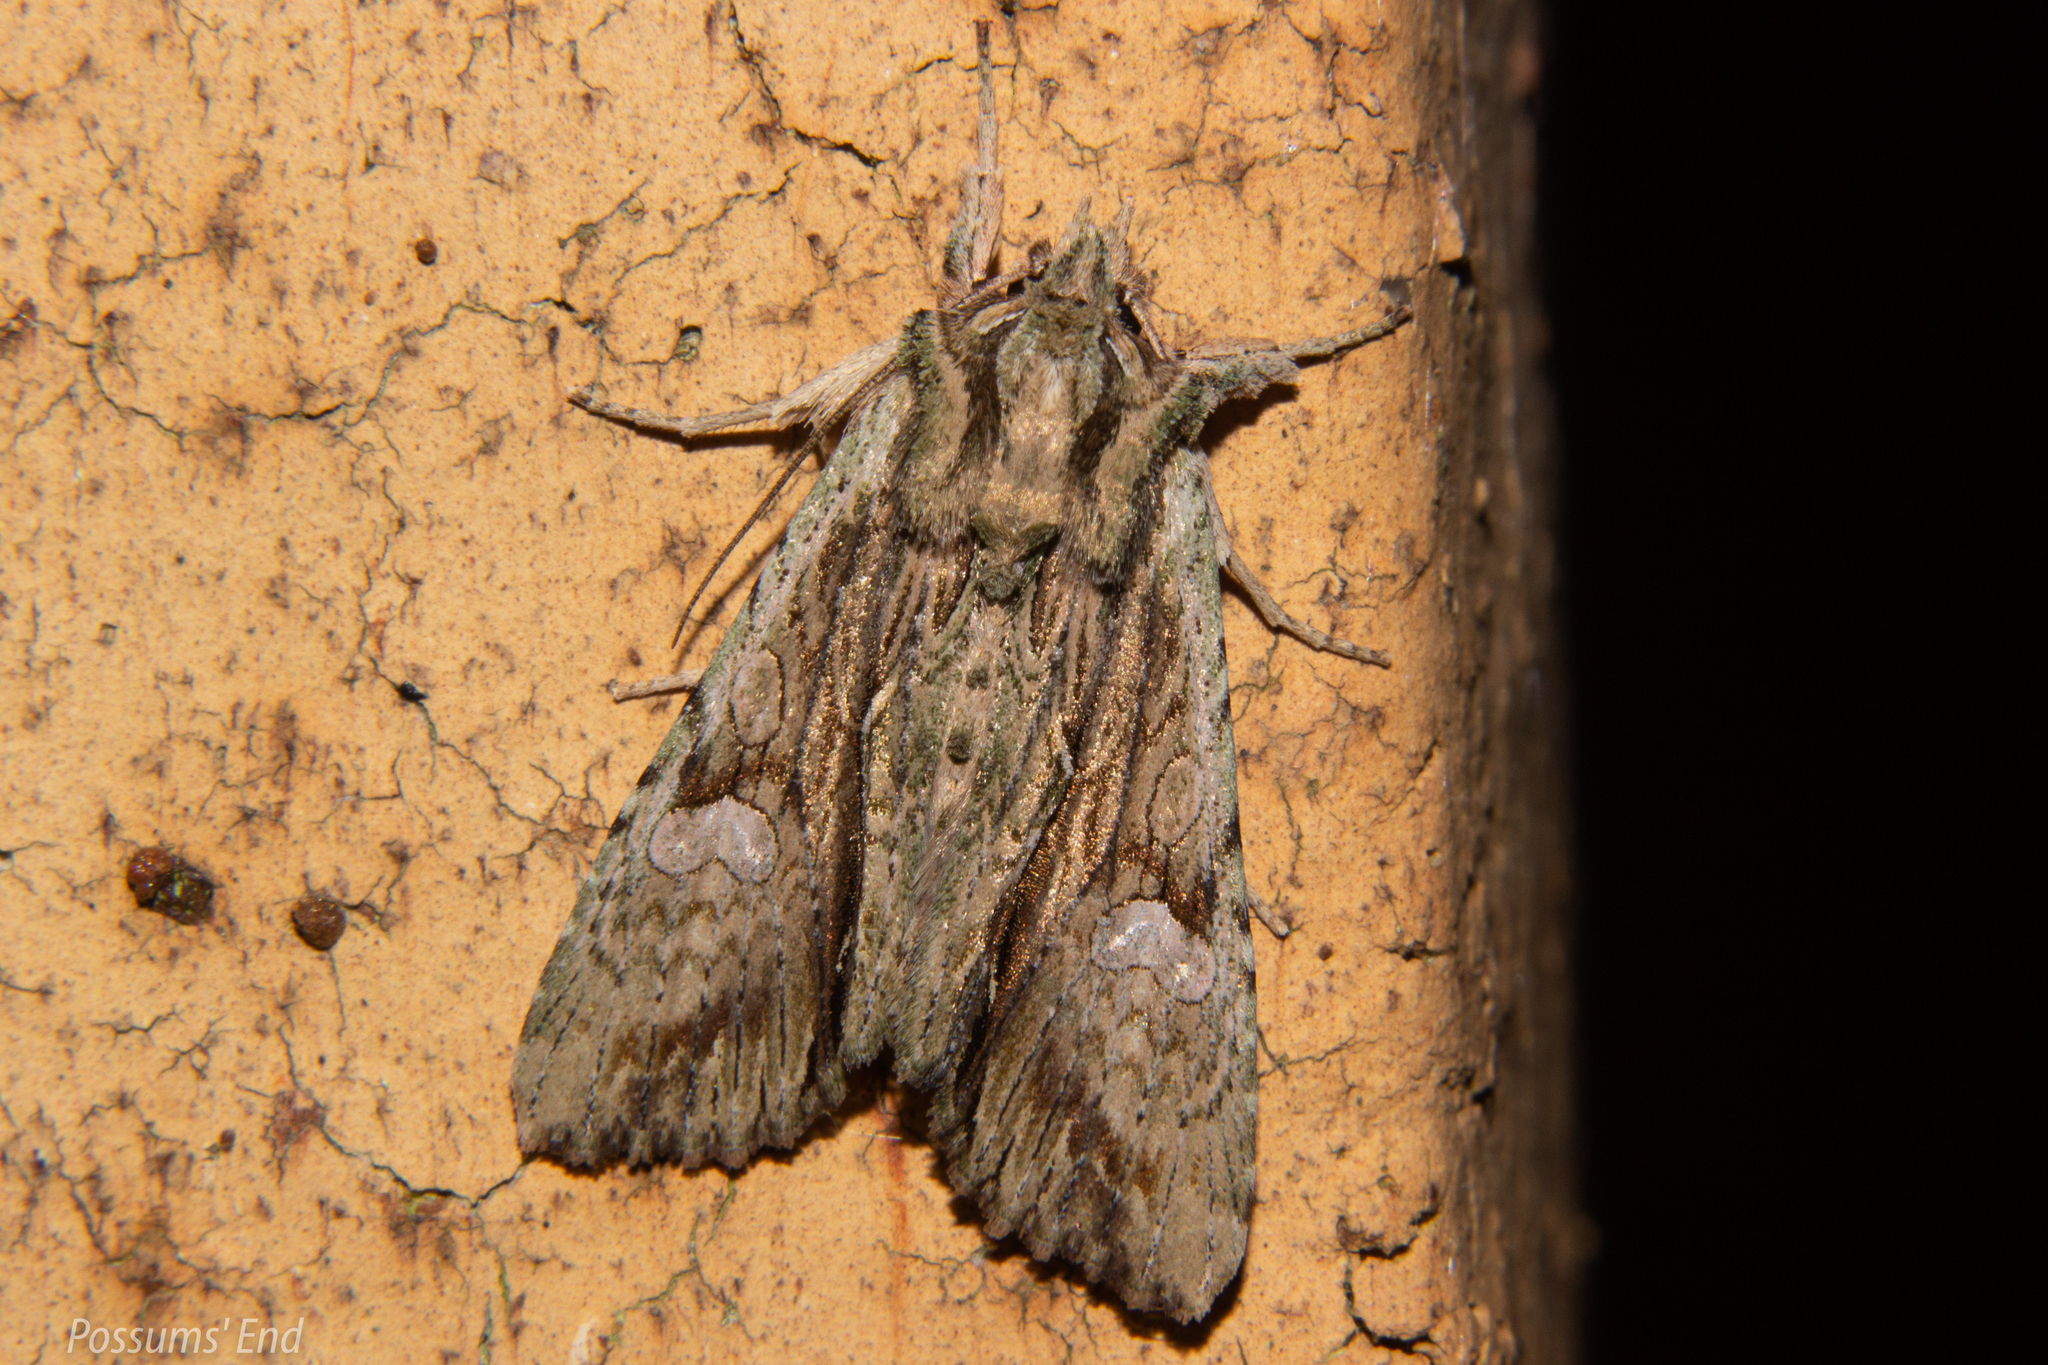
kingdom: Animalia
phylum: Arthropoda
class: Insecta
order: Lepidoptera
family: Noctuidae
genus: Meterana
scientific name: Meterana decorata
